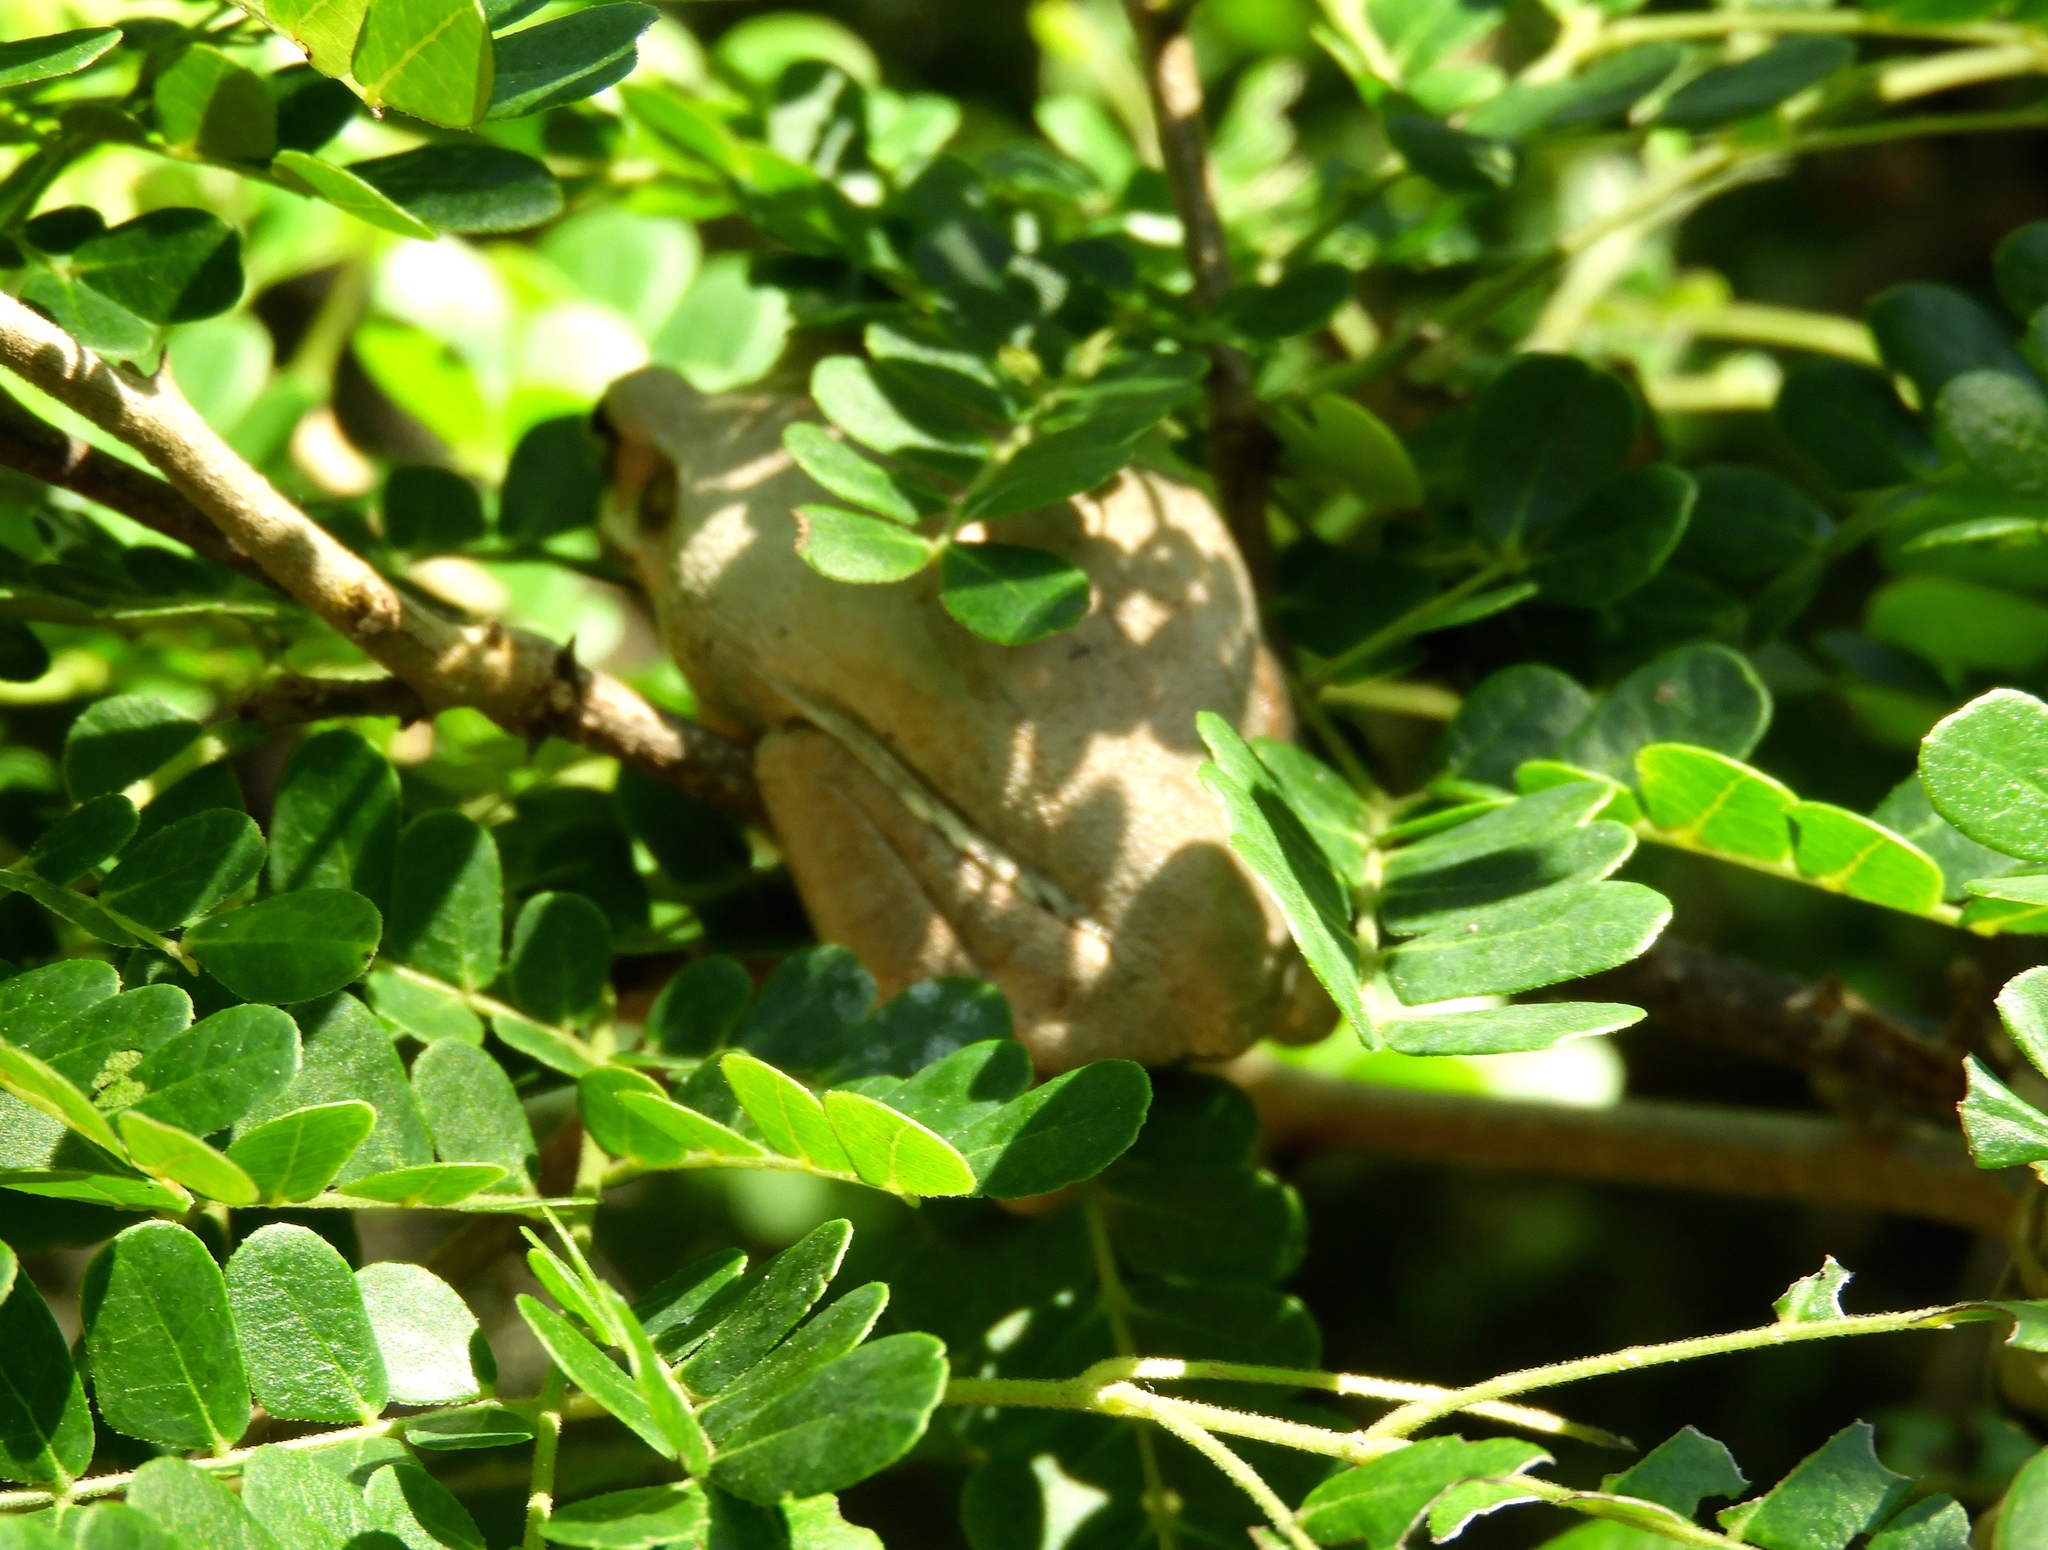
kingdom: Animalia
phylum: Chordata
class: Amphibia
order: Anura
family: Hylidae
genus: Smilisca
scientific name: Smilisca baudinii
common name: Mexican smilisca
